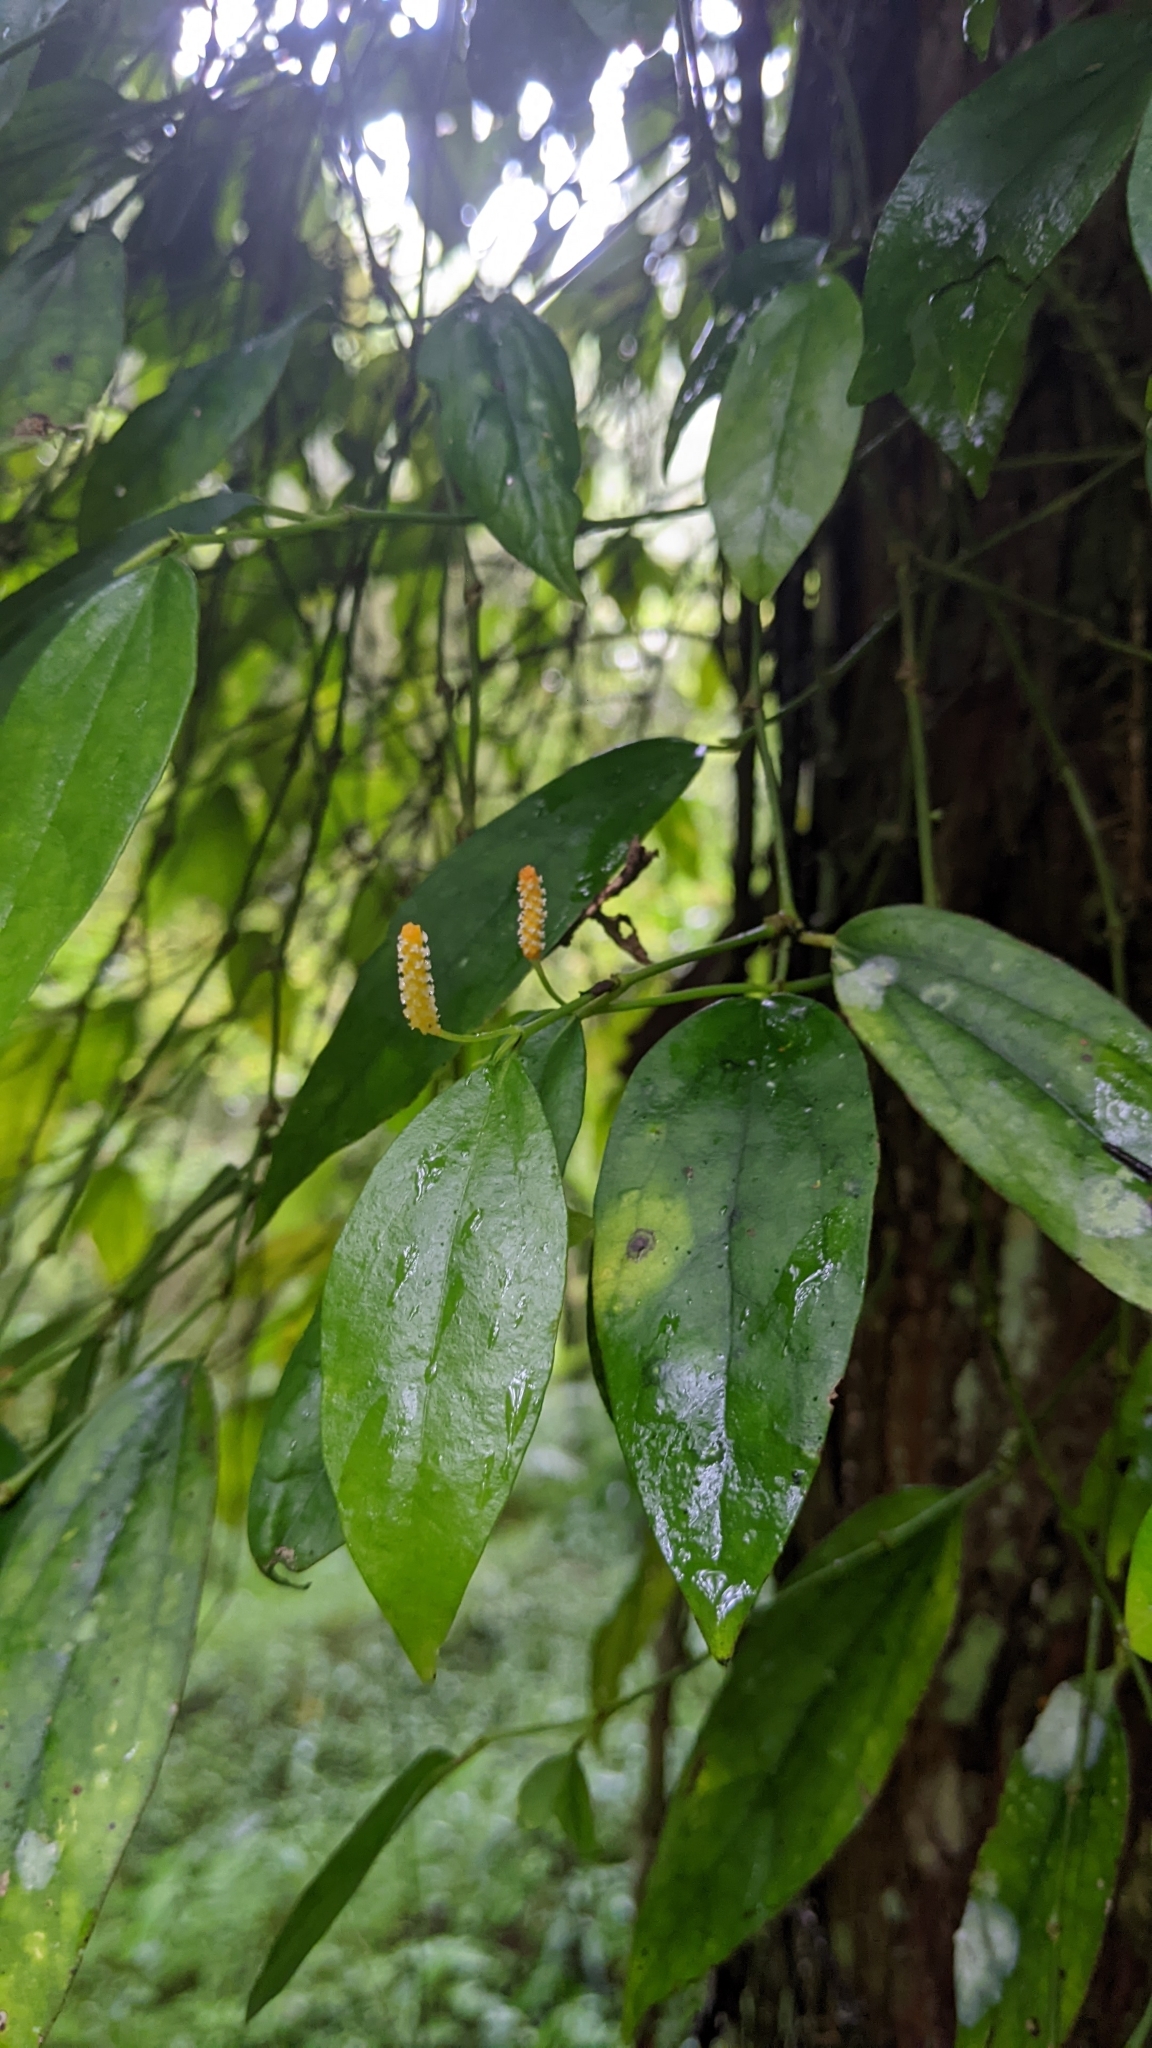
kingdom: Plantae
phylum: Tracheophyta
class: Magnoliopsida
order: Piperales
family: Piperaceae
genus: Piper
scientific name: Piper kadsura
